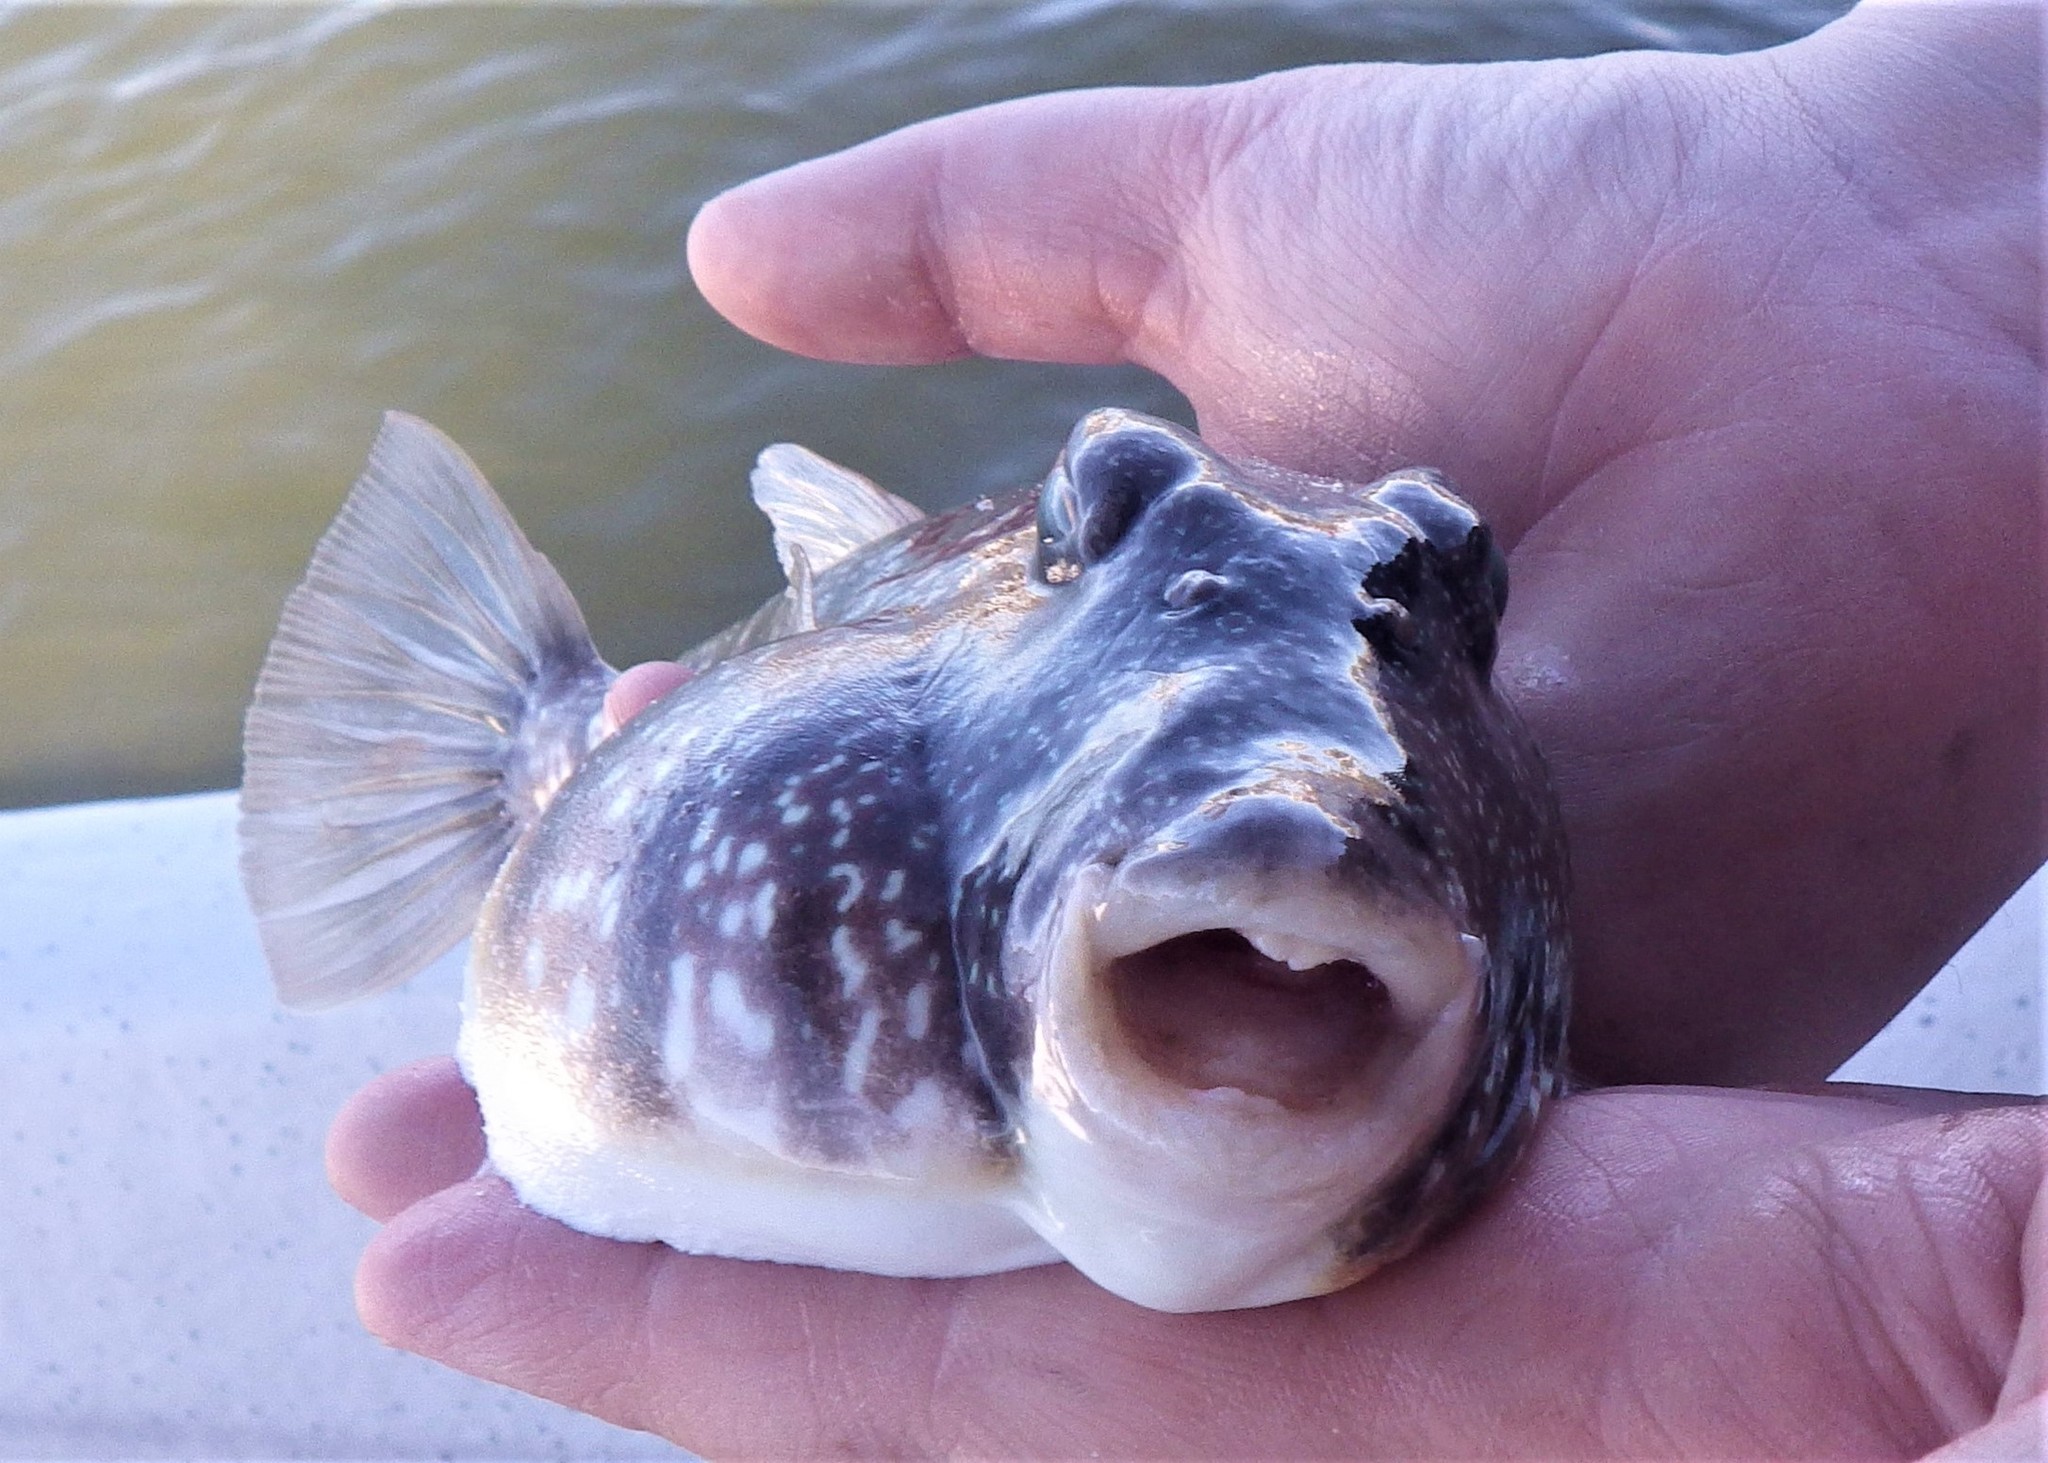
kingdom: Animalia
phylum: Chordata
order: Tetraodontiformes
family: Tetraodontidae
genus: Sphoeroides
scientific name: Sphoeroides nephelus
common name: Southern puffer
